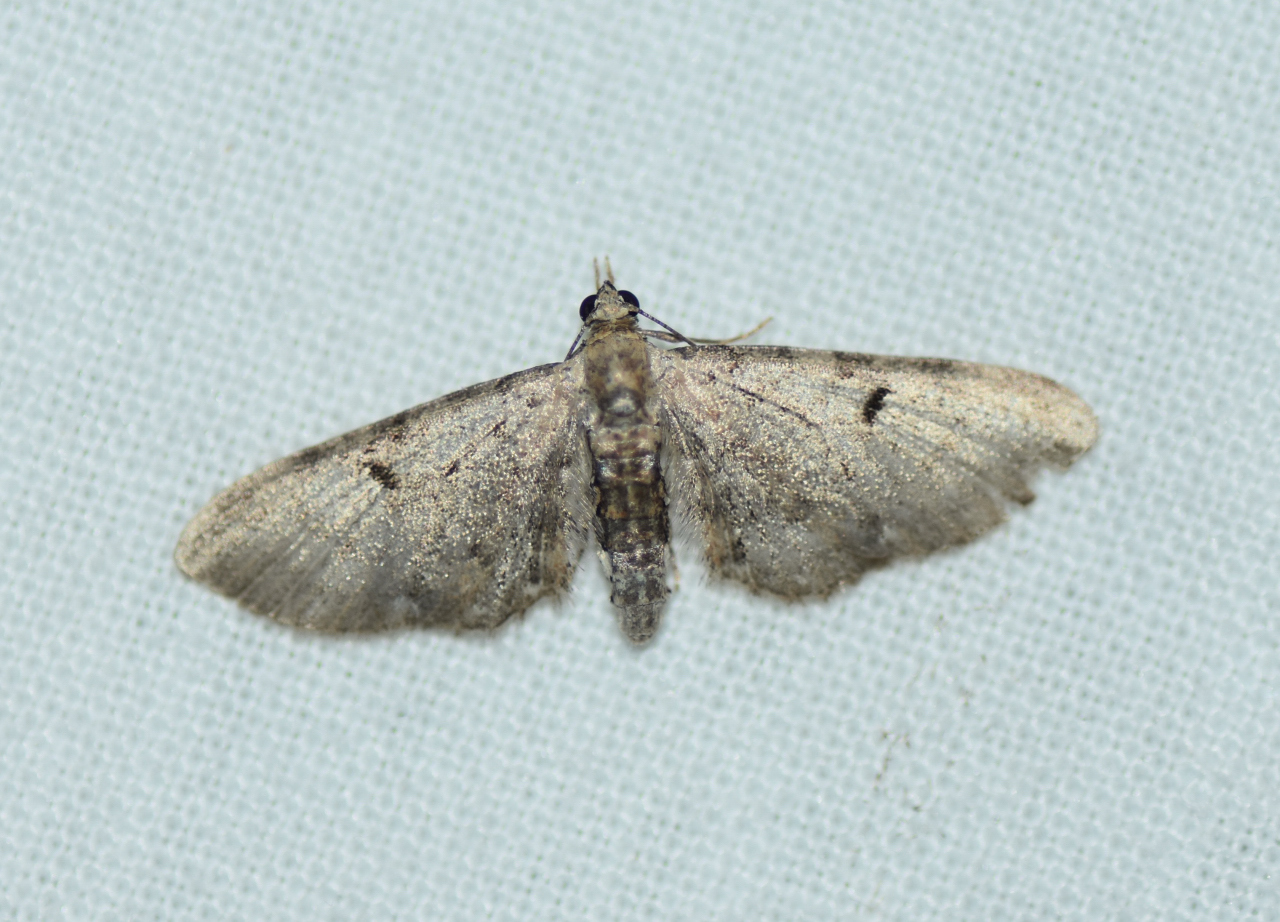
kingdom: Animalia
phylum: Arthropoda
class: Insecta
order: Lepidoptera
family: Geometridae
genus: Eupithecia
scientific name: Eupithecia miserulata
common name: Common eupithecia
